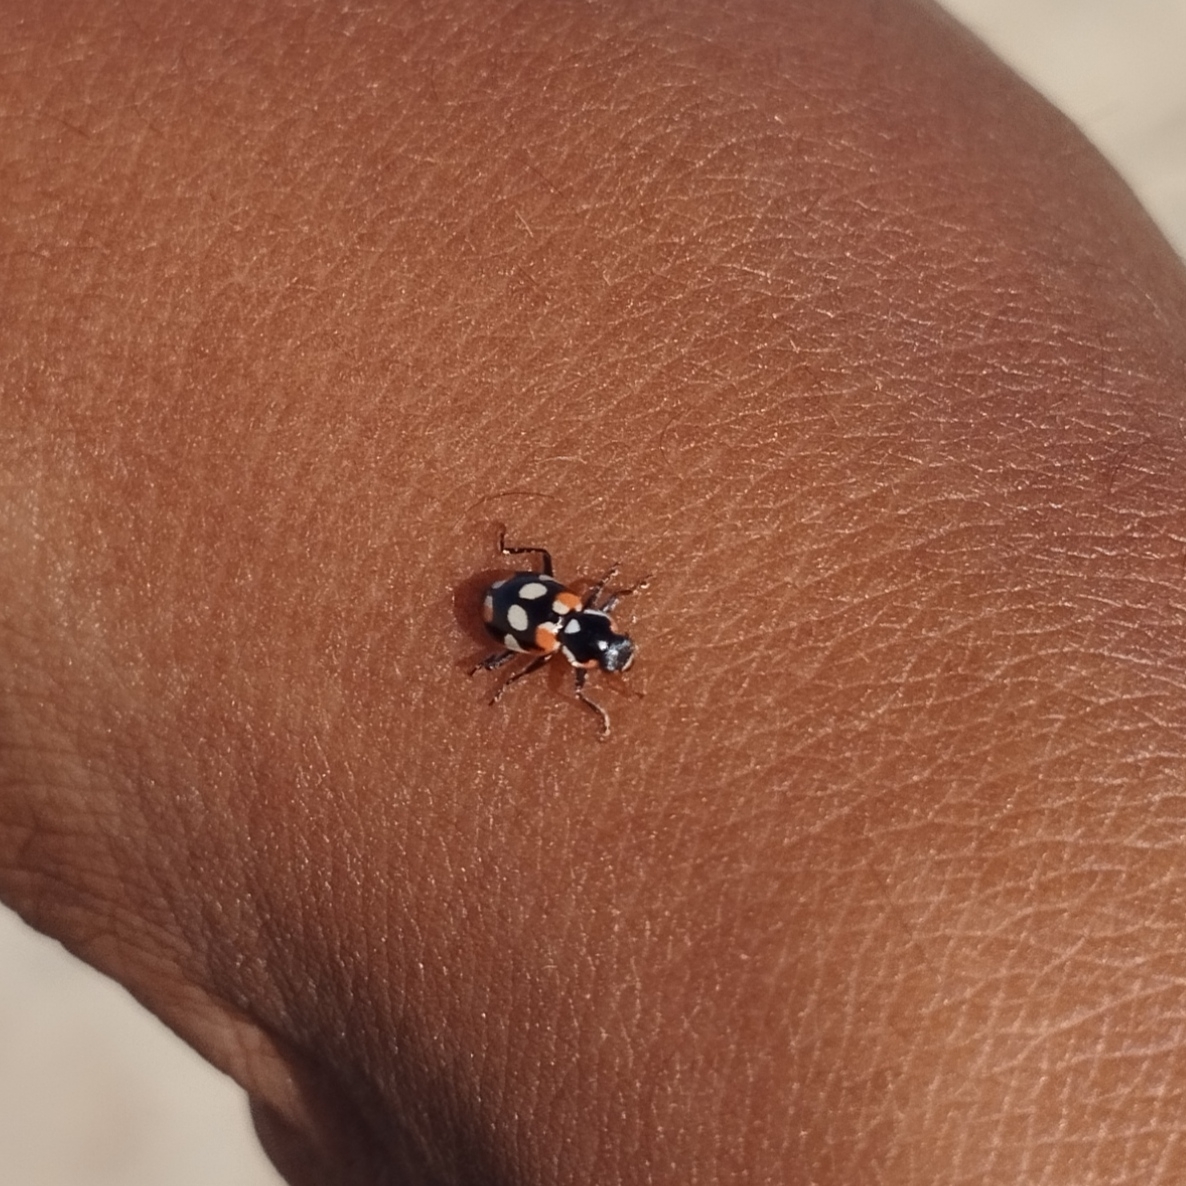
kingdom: Animalia
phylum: Arthropoda
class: Insecta
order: Coleoptera
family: Coccinellidae
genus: Eriopis
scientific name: Eriopis connexa
